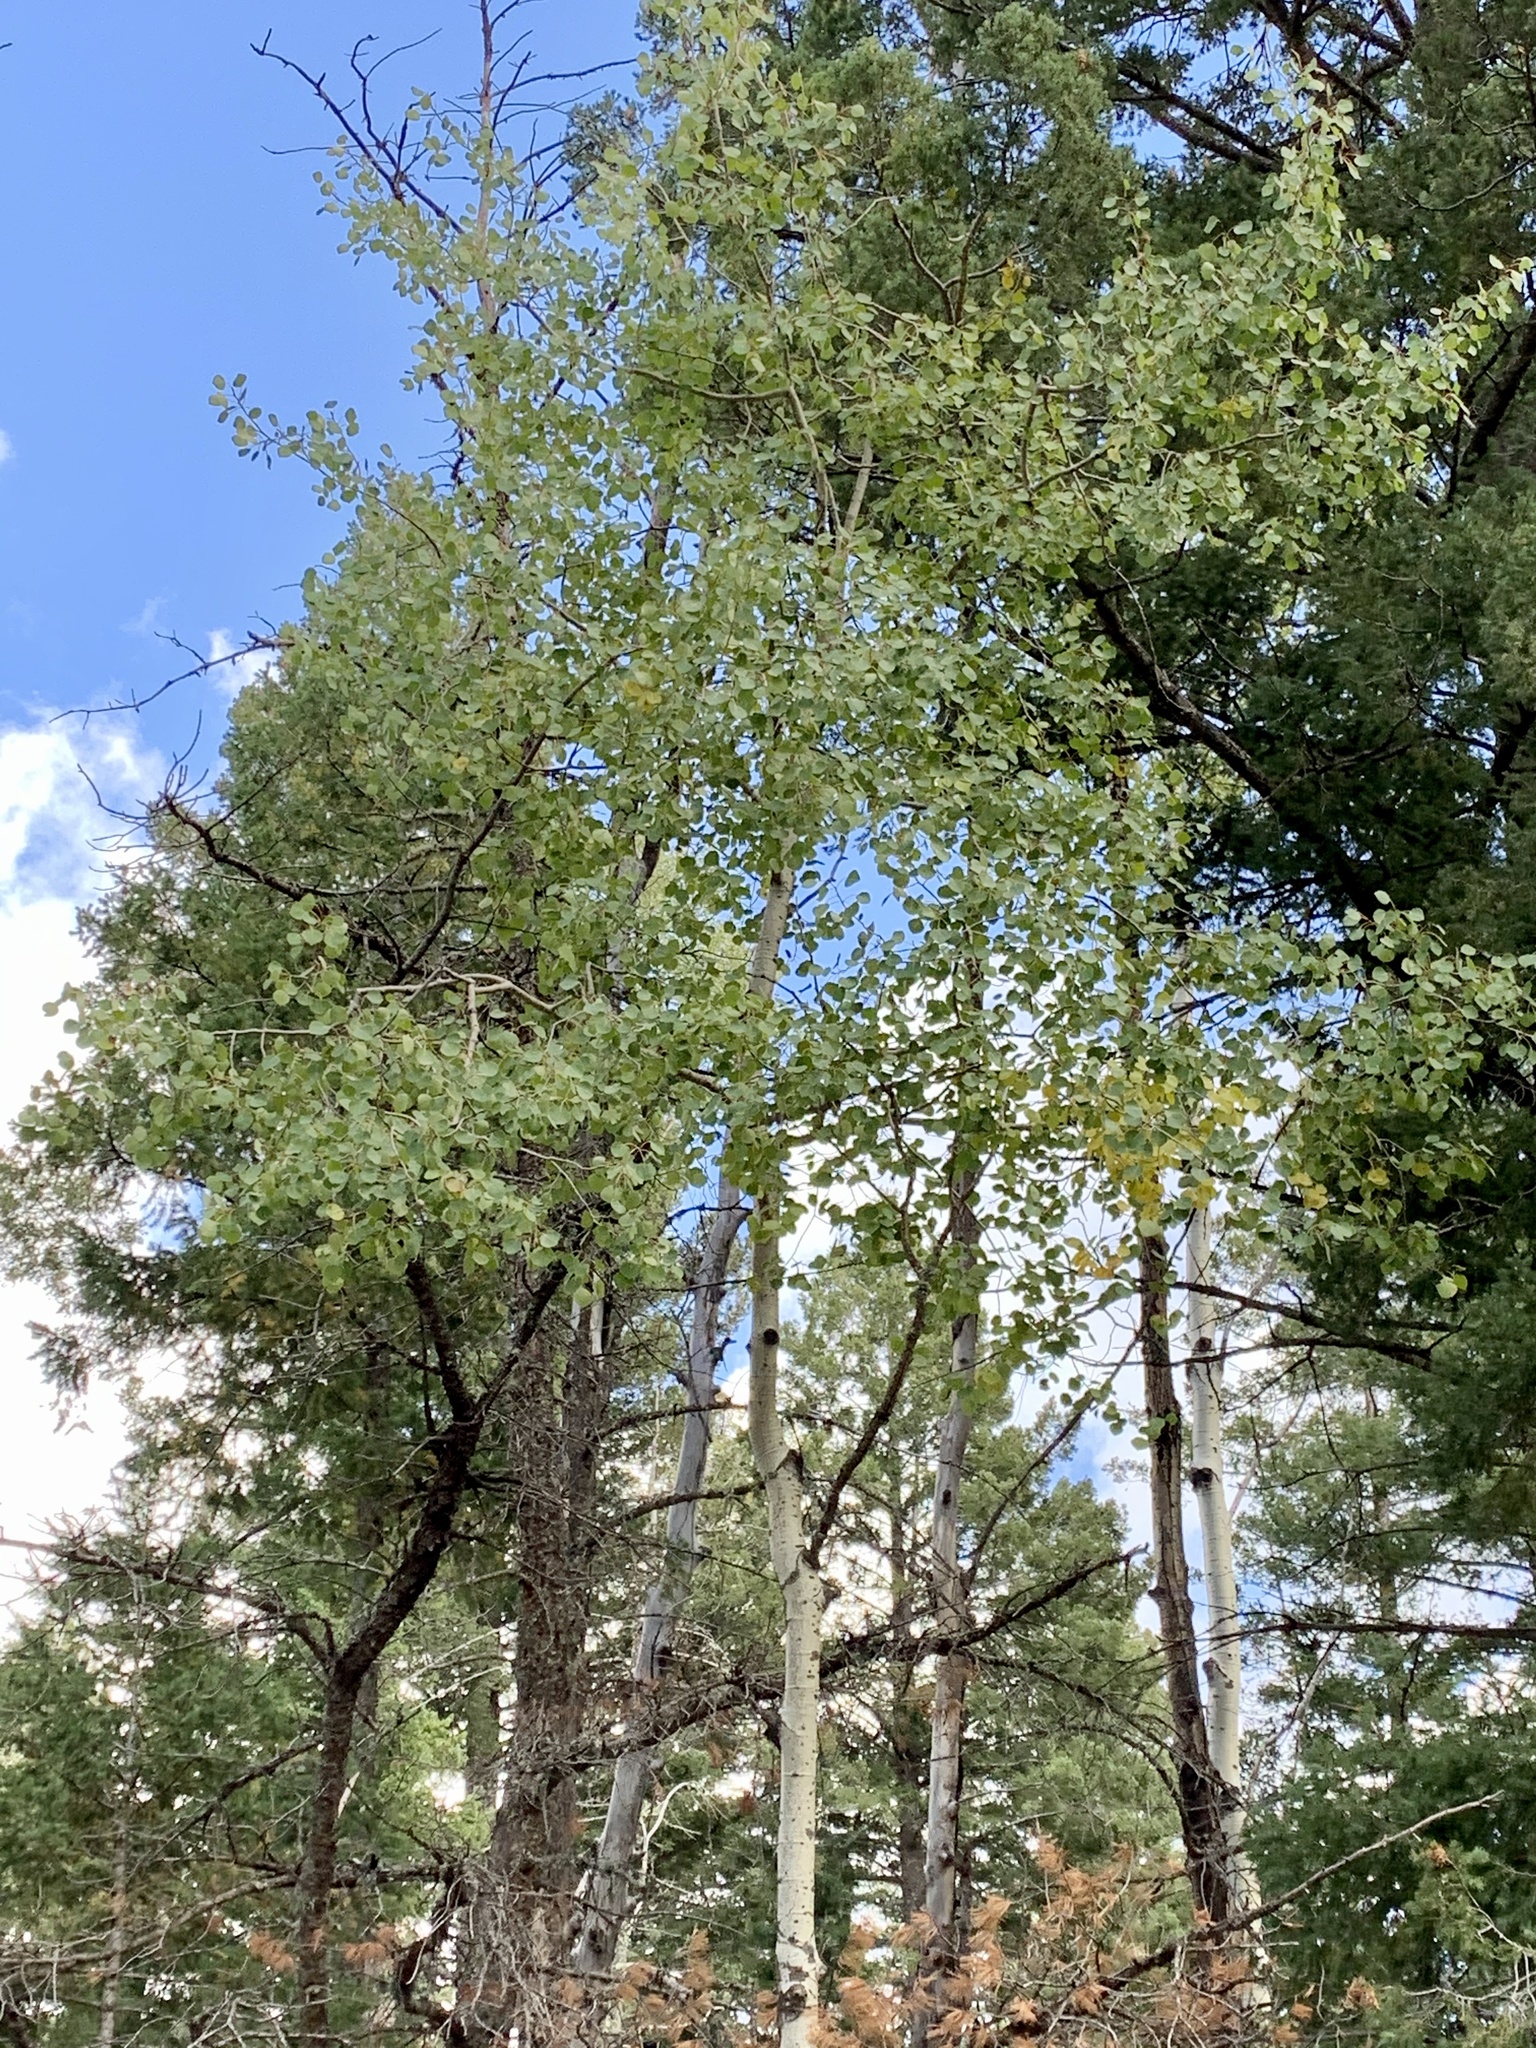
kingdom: Plantae
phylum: Tracheophyta
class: Magnoliopsida
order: Malpighiales
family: Salicaceae
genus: Populus
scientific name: Populus tremuloides
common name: Quaking aspen
